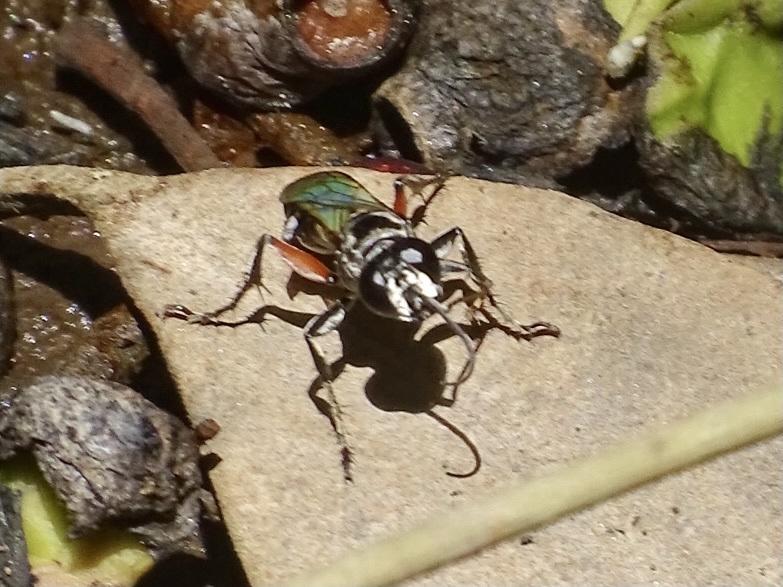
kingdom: Animalia
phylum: Arthropoda
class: Insecta
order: Hymenoptera
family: Crabronidae
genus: Liris
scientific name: Liris subtessellatus
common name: Crabronid wasp
